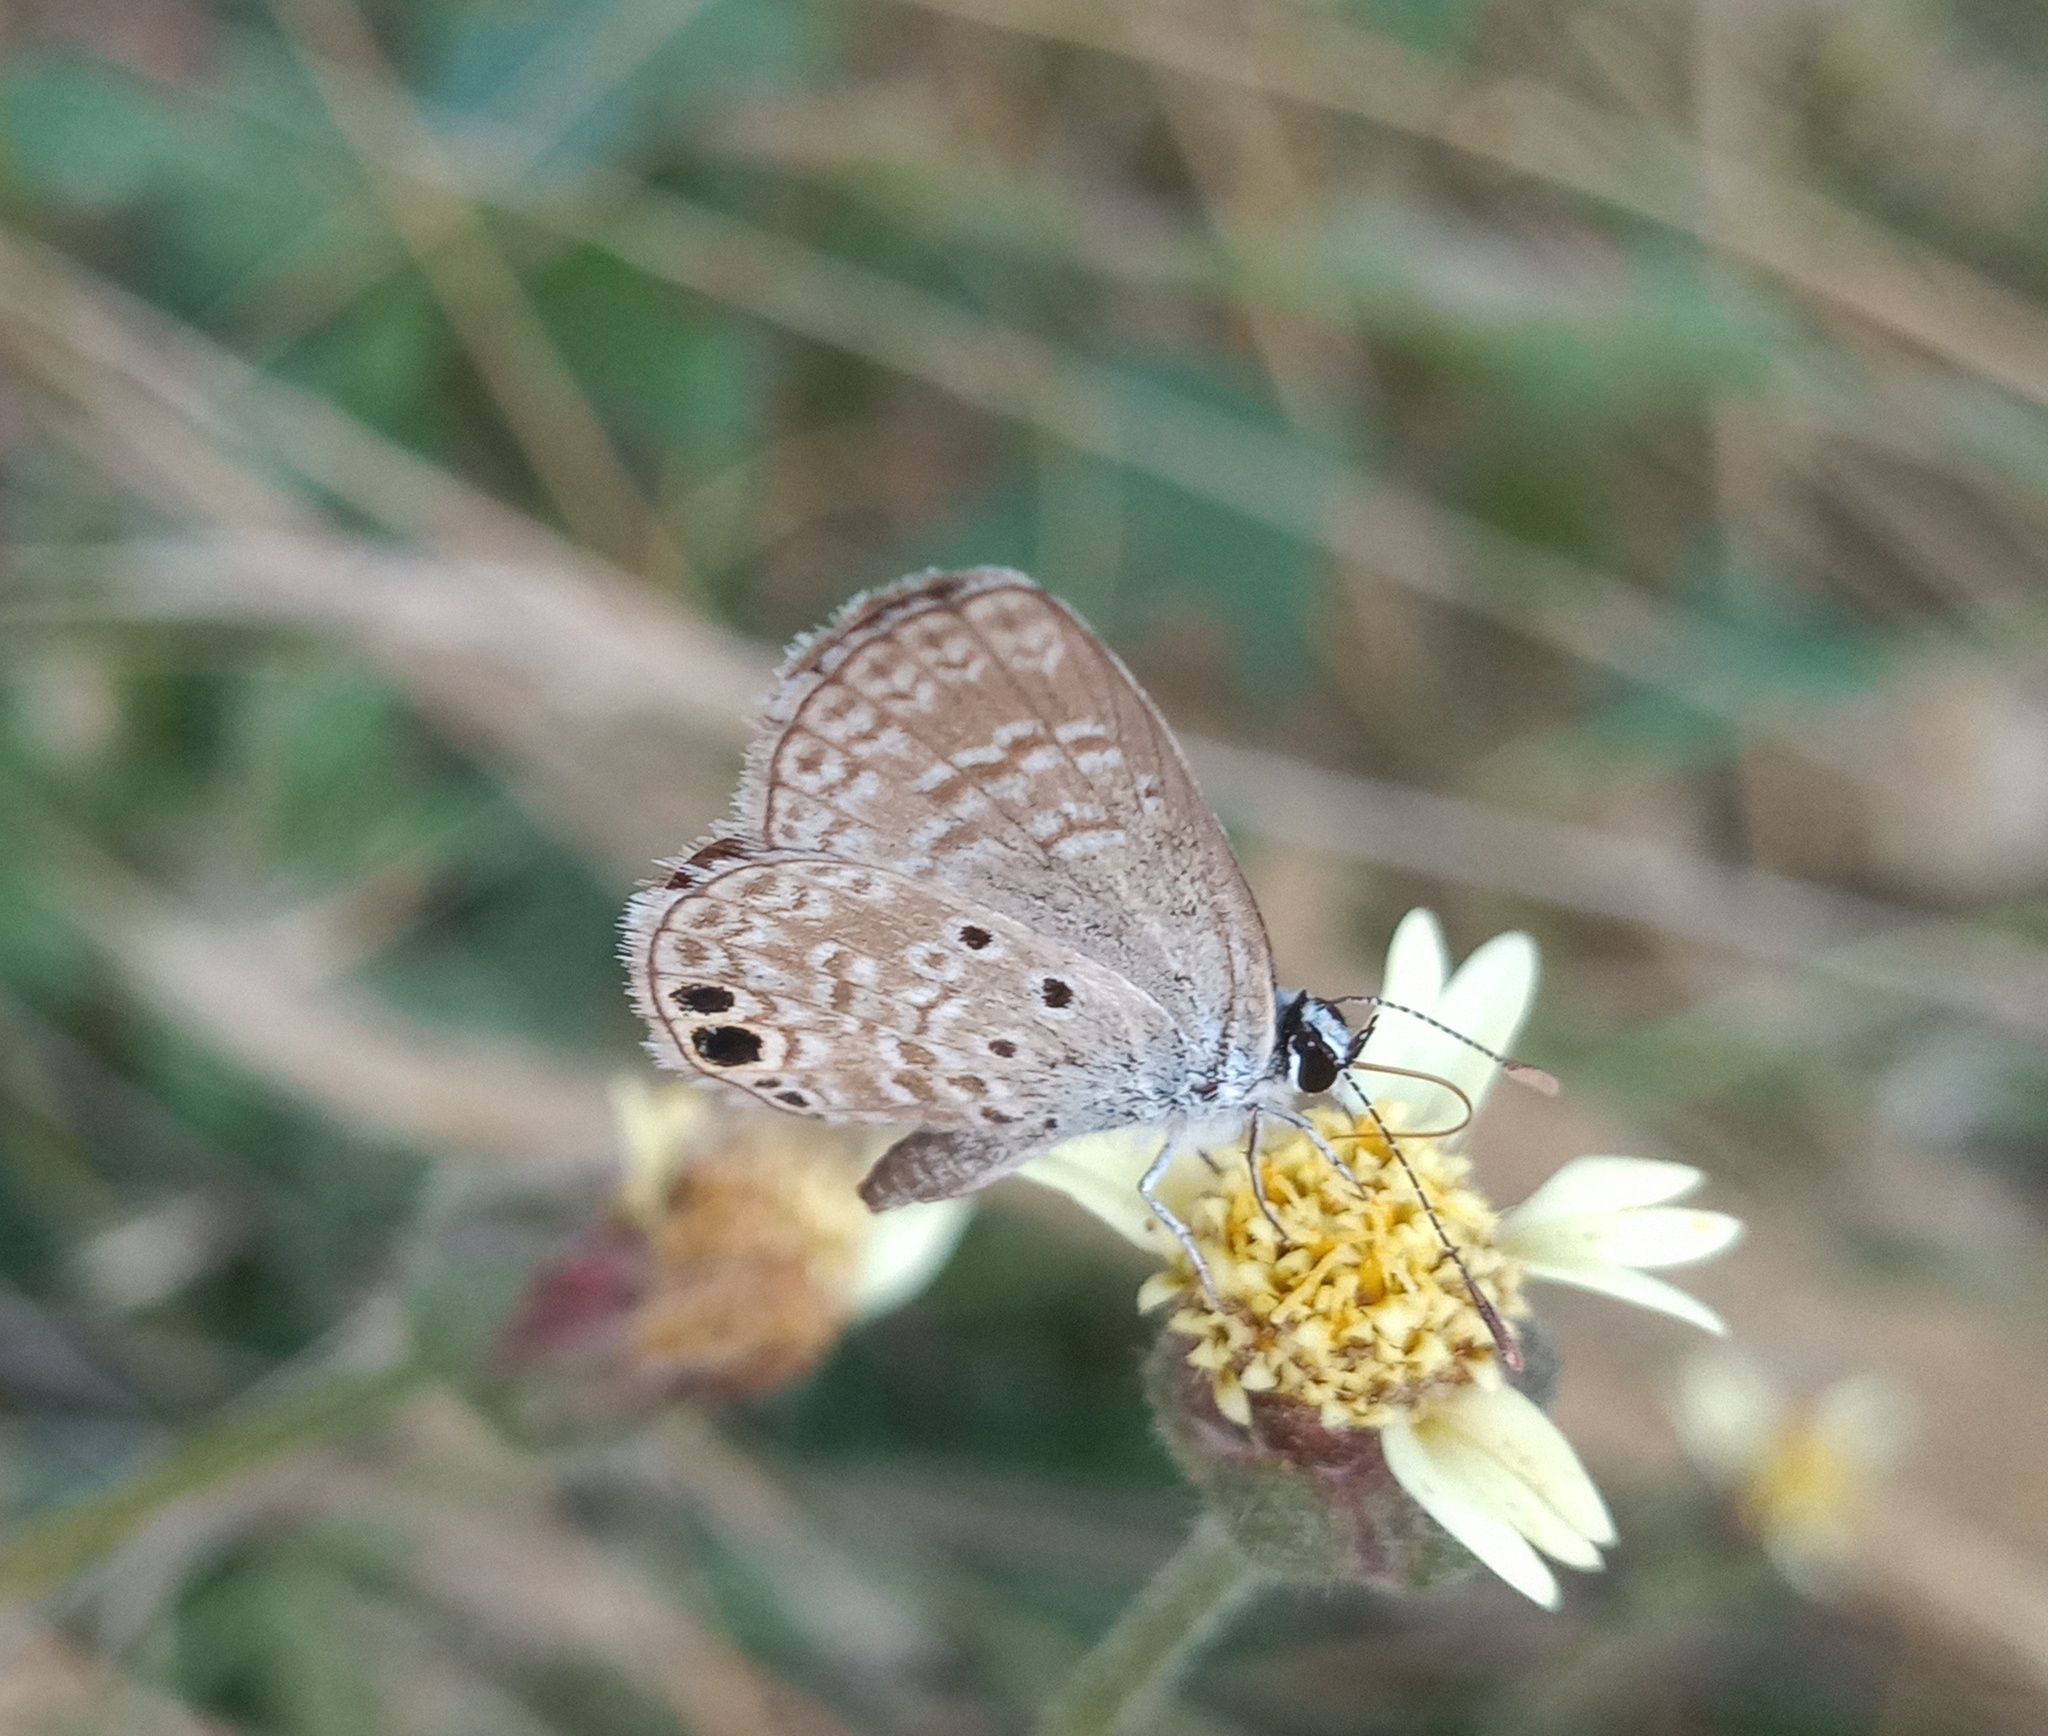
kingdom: Animalia
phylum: Arthropoda
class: Insecta
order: Lepidoptera
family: Lycaenidae
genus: Hemiargus
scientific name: Hemiargus ceraunus
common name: Ceraunus blue
